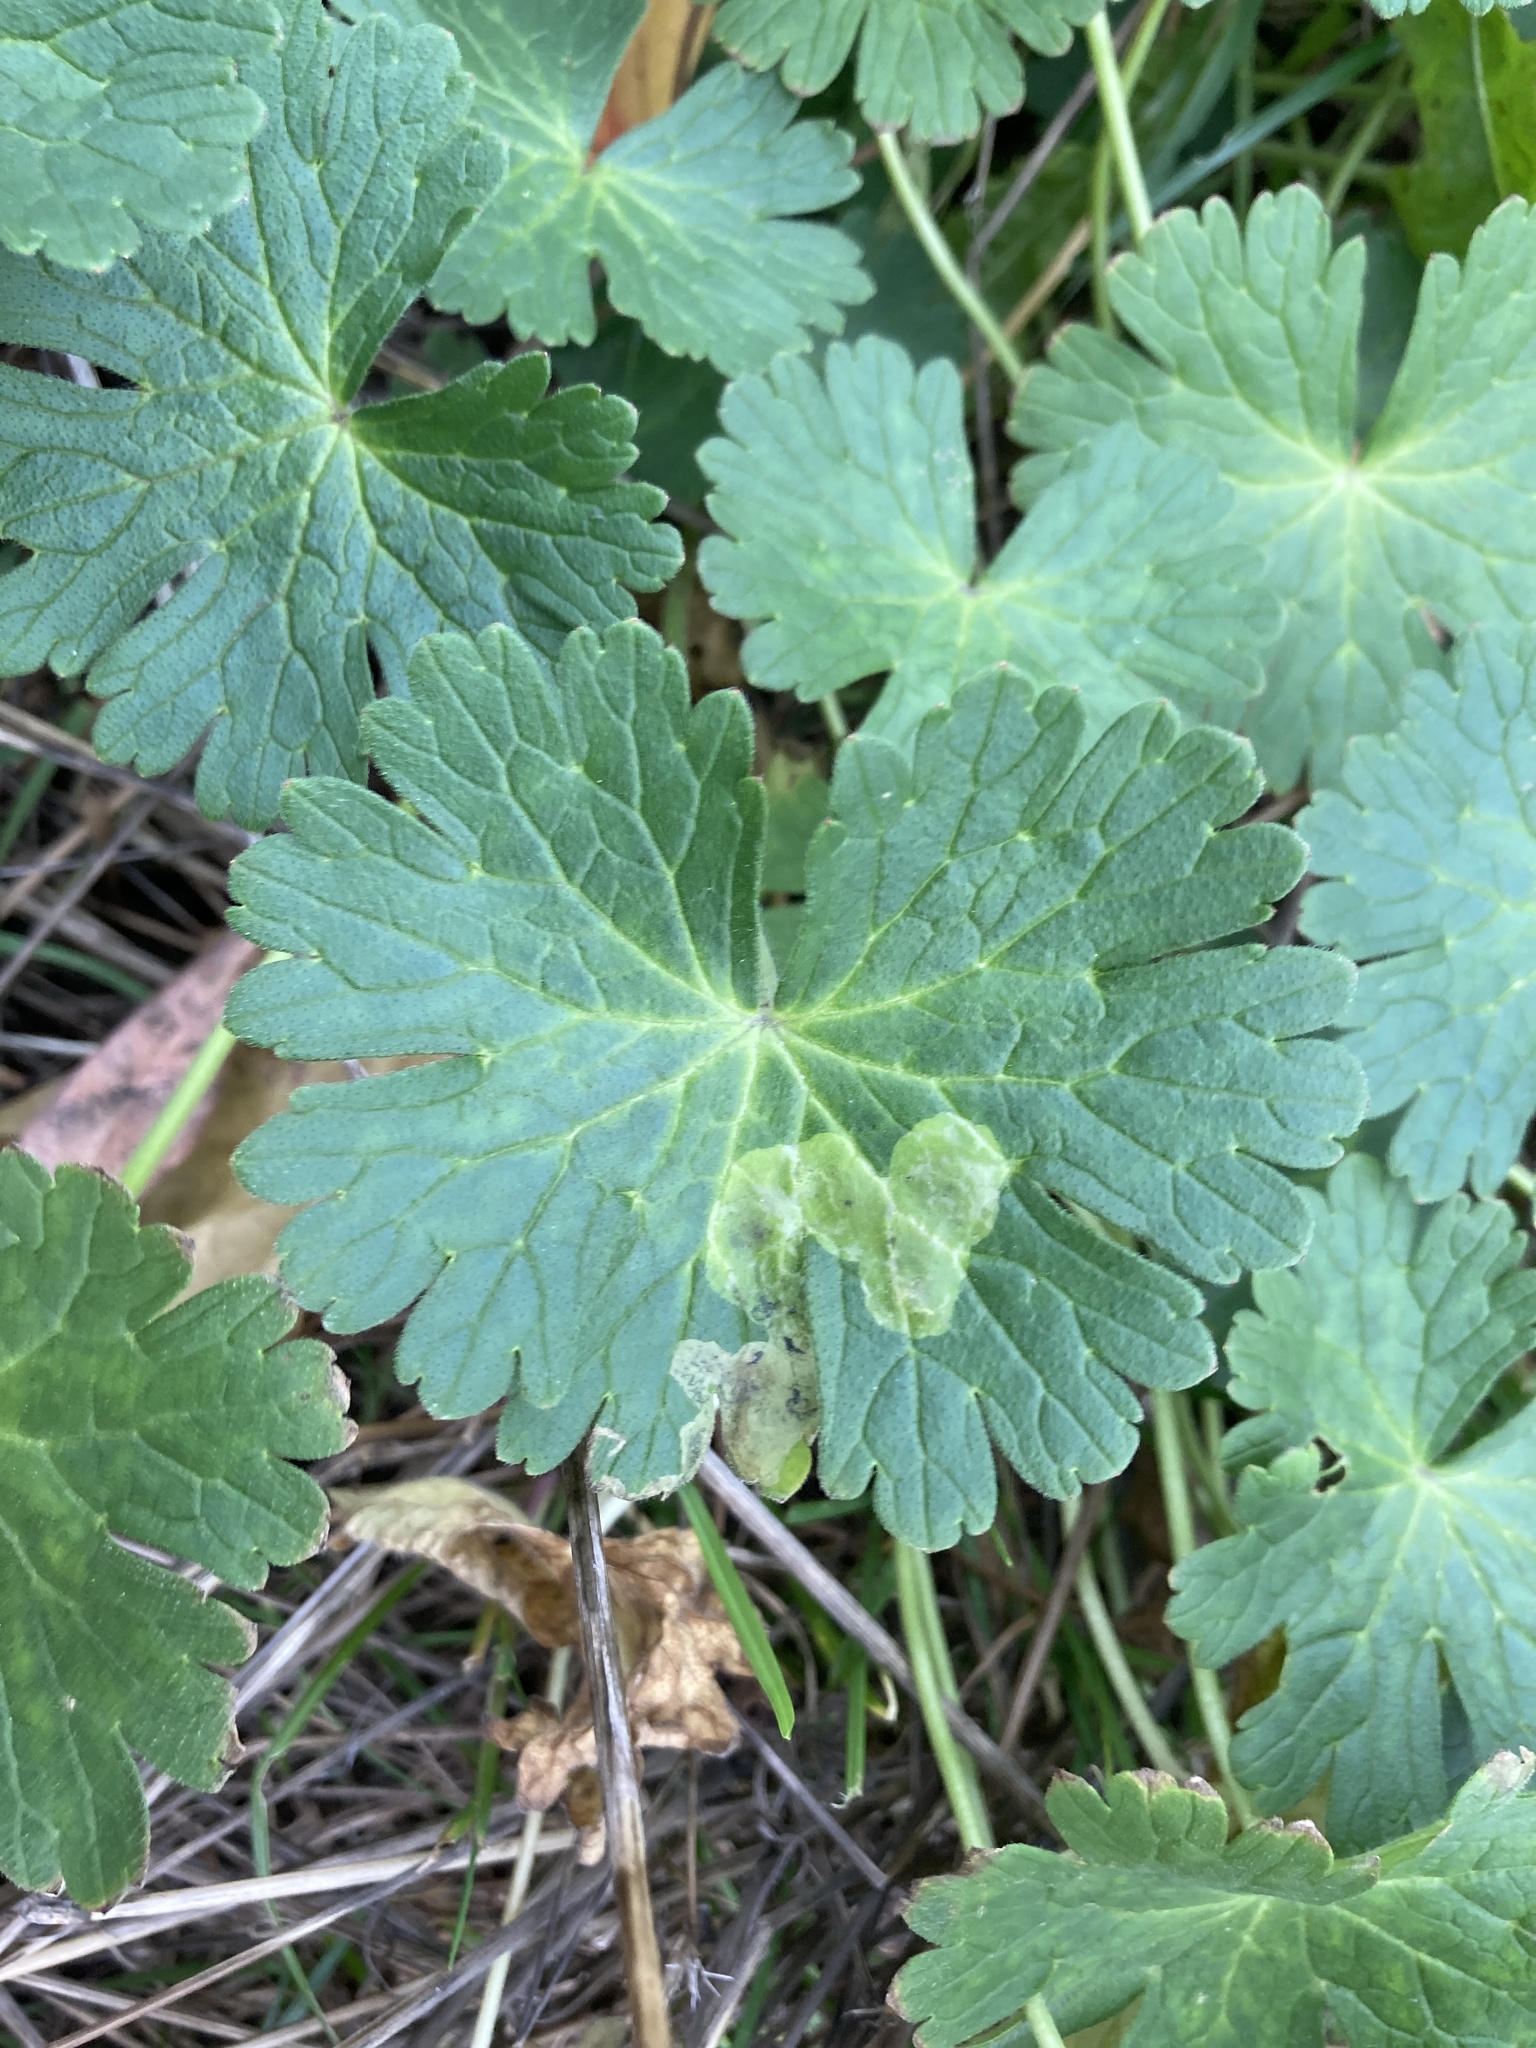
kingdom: Animalia
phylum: Arthropoda
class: Insecta
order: Diptera
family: Agromyzidae
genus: Agromyza
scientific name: Agromyza nigrescens
